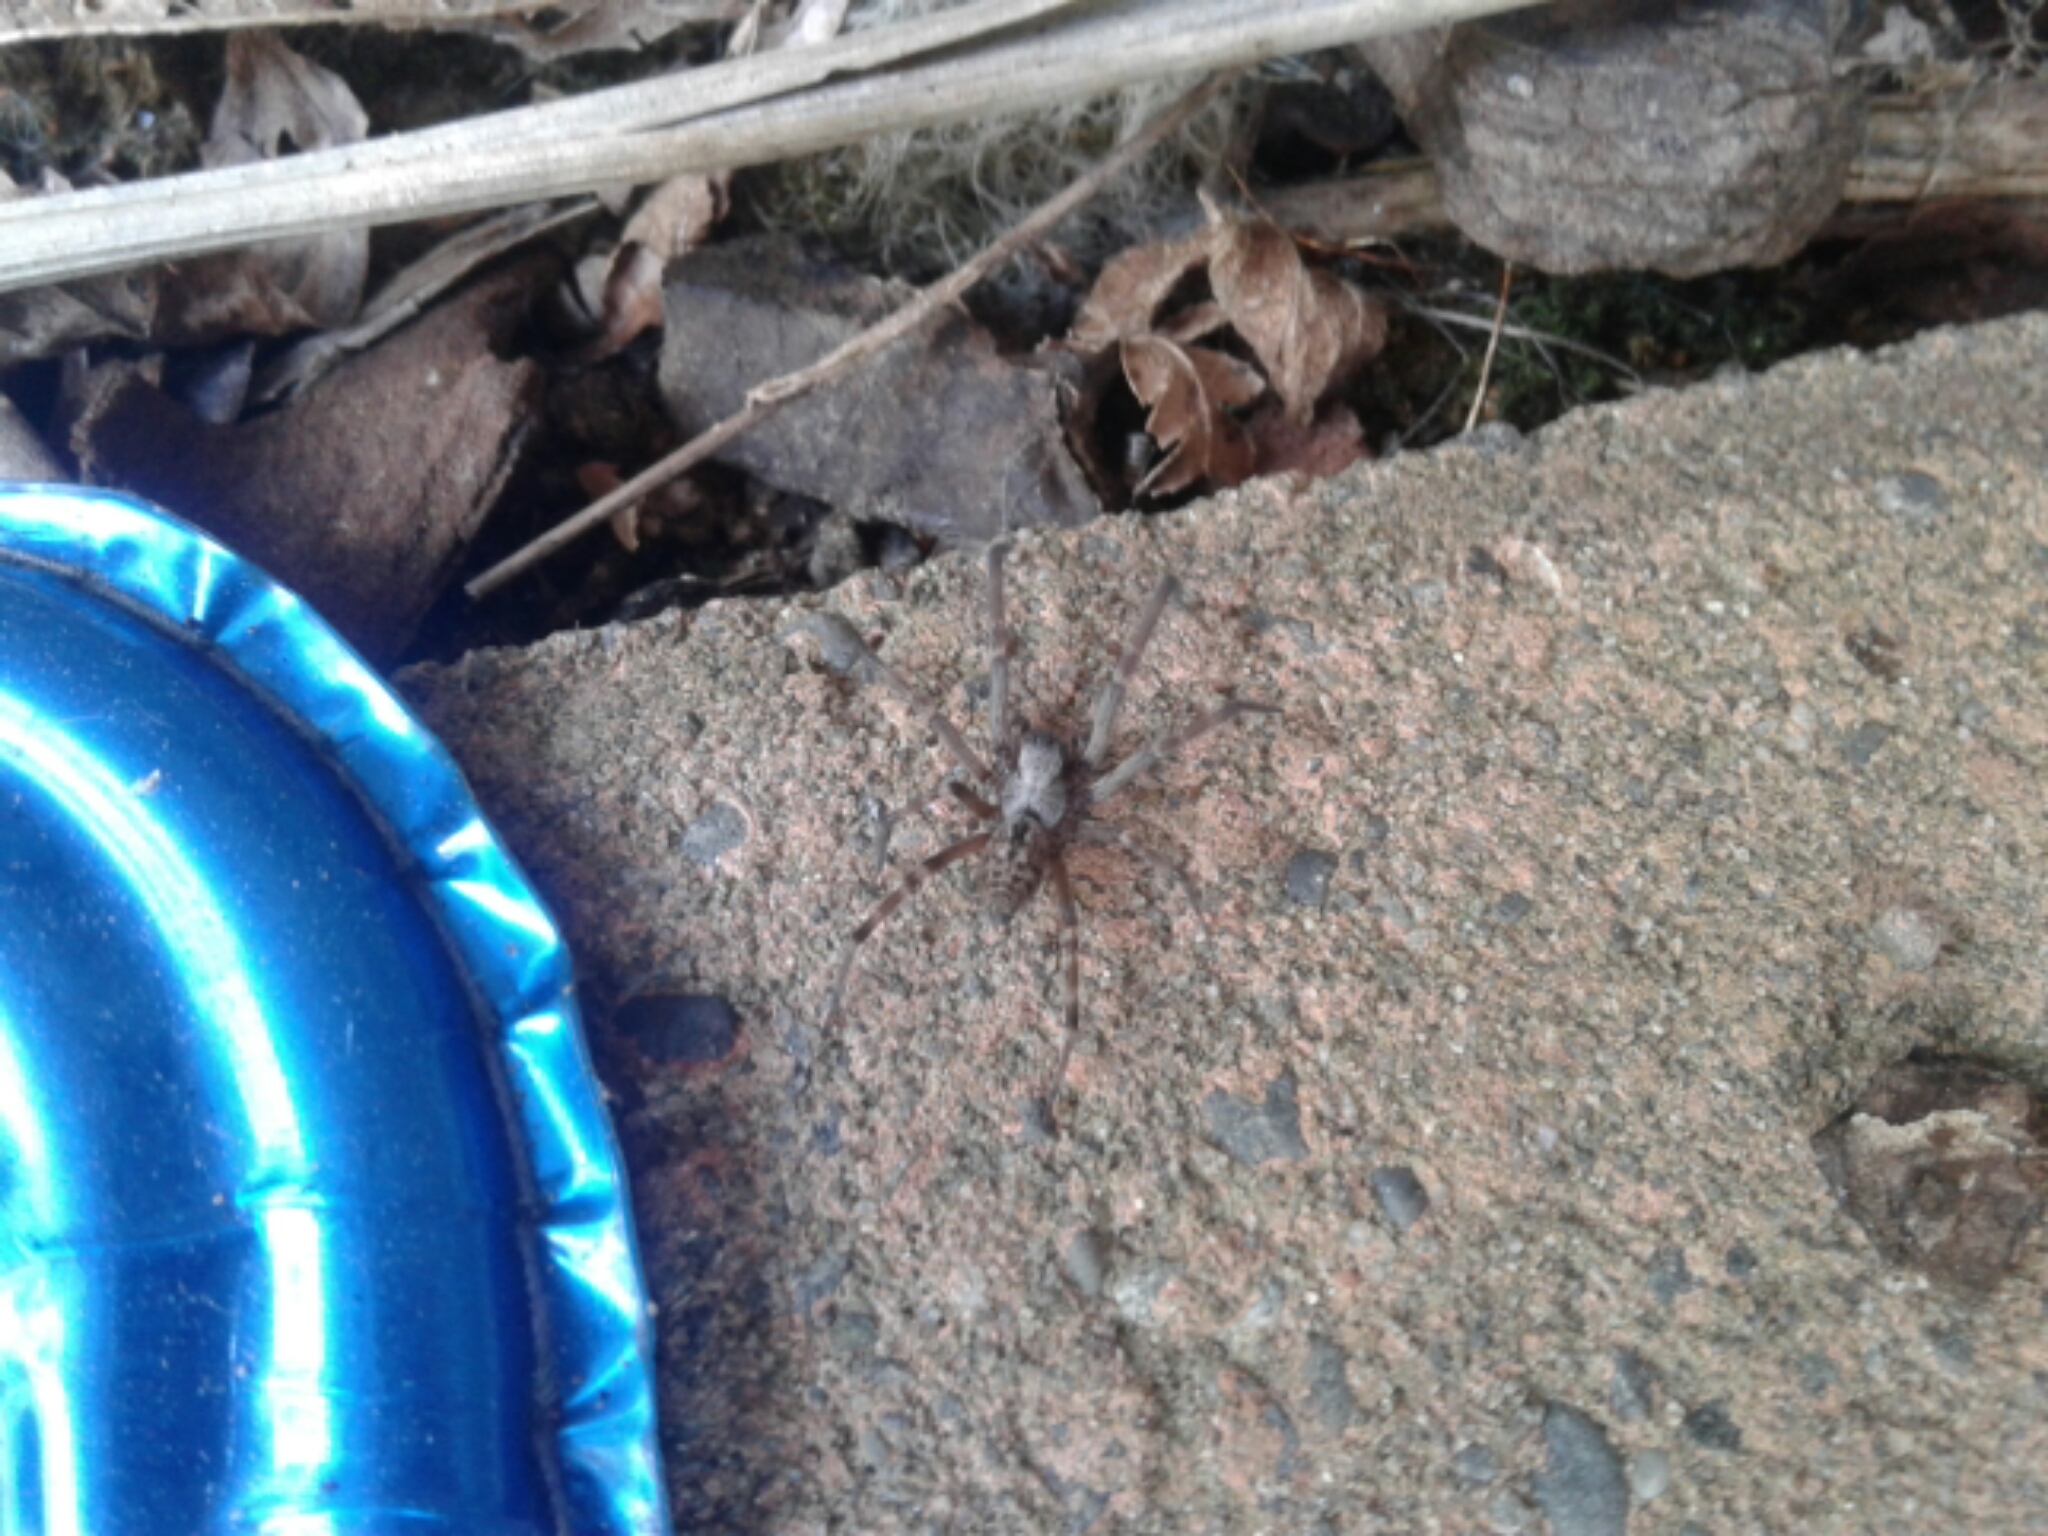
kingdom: Animalia
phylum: Arthropoda
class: Arachnida
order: Araneae
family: Desidae
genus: Badumna
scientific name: Badumna
